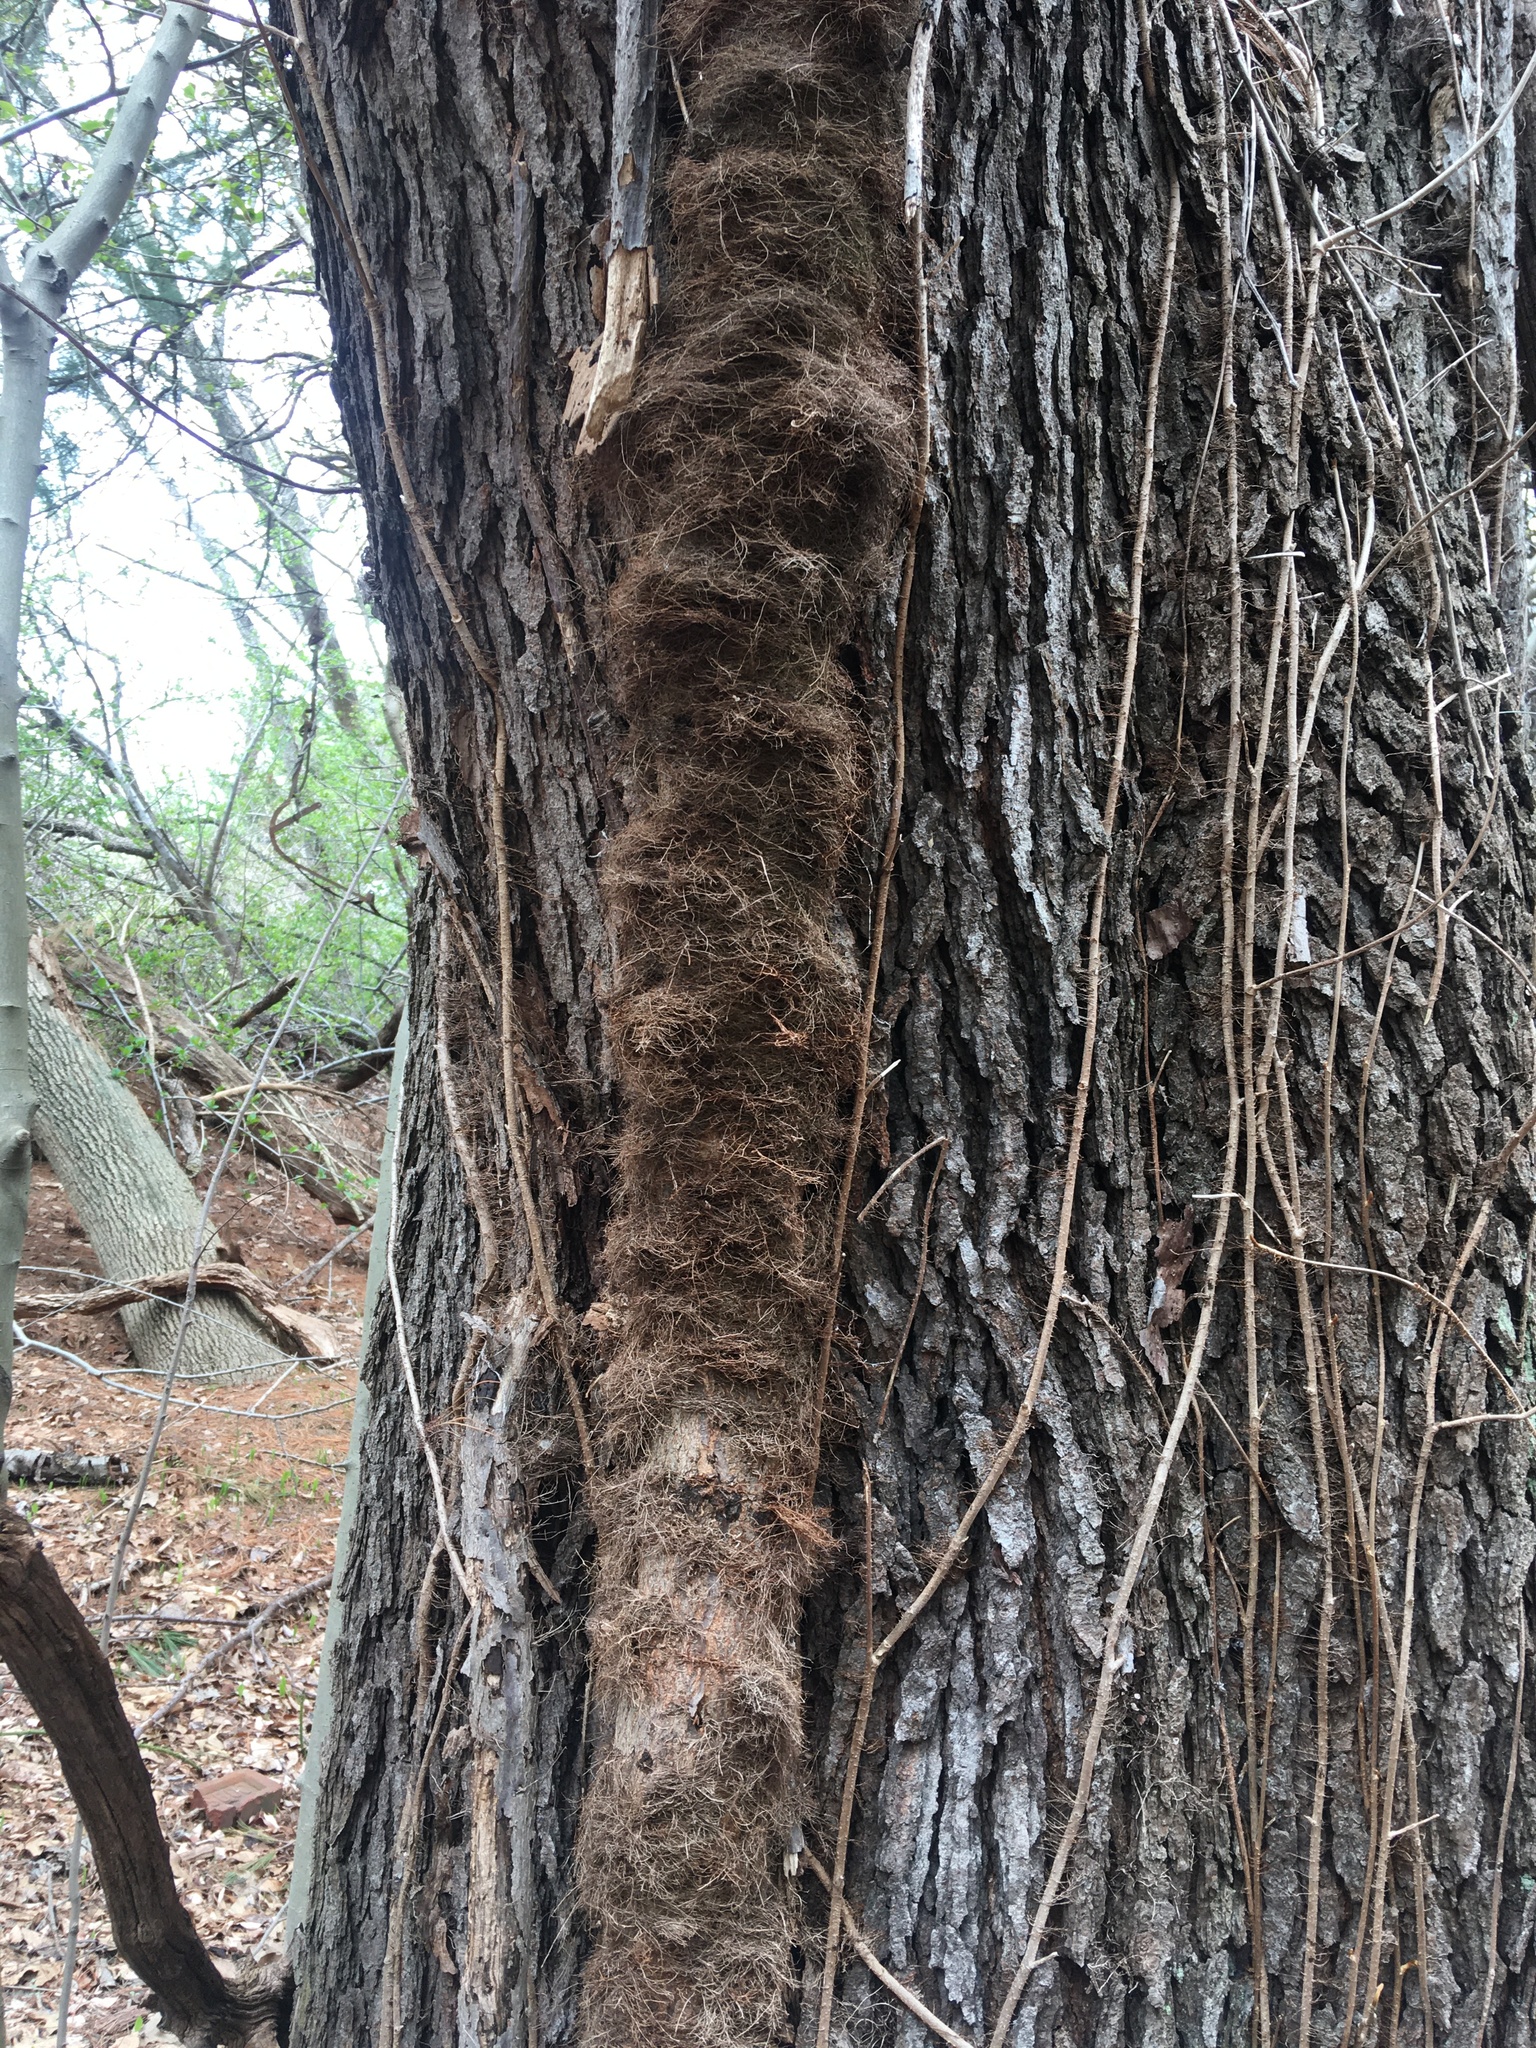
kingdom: Plantae
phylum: Tracheophyta
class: Magnoliopsida
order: Sapindales
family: Anacardiaceae
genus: Toxicodendron
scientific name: Toxicodendron radicans
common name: Poison ivy
